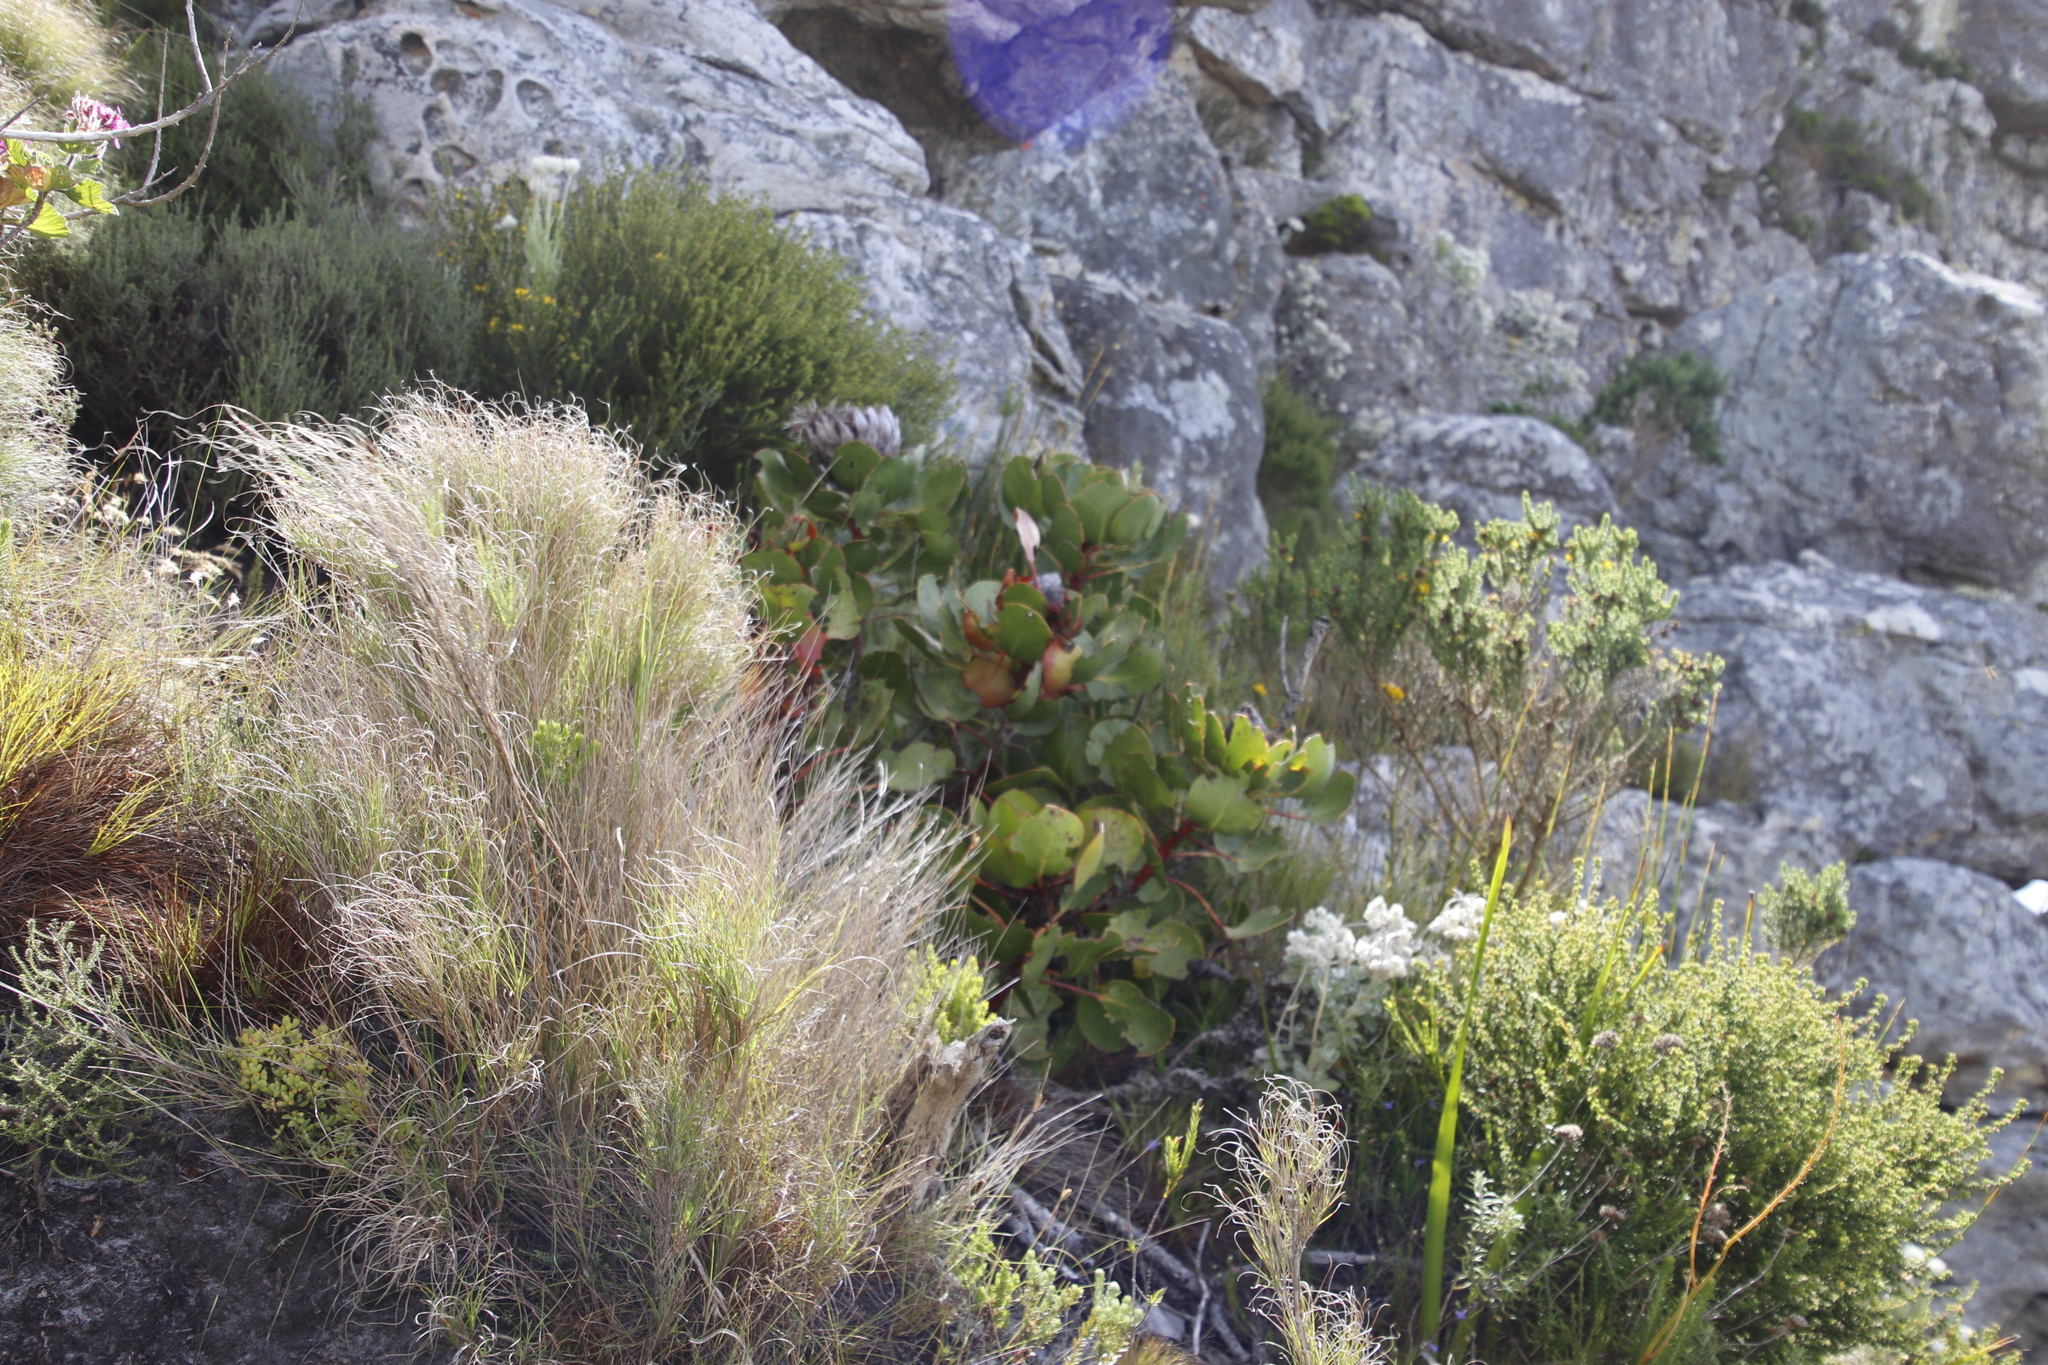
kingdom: Plantae
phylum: Tracheophyta
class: Magnoliopsida
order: Proteales
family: Proteaceae
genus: Protea
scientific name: Protea cynaroides
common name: King protea
